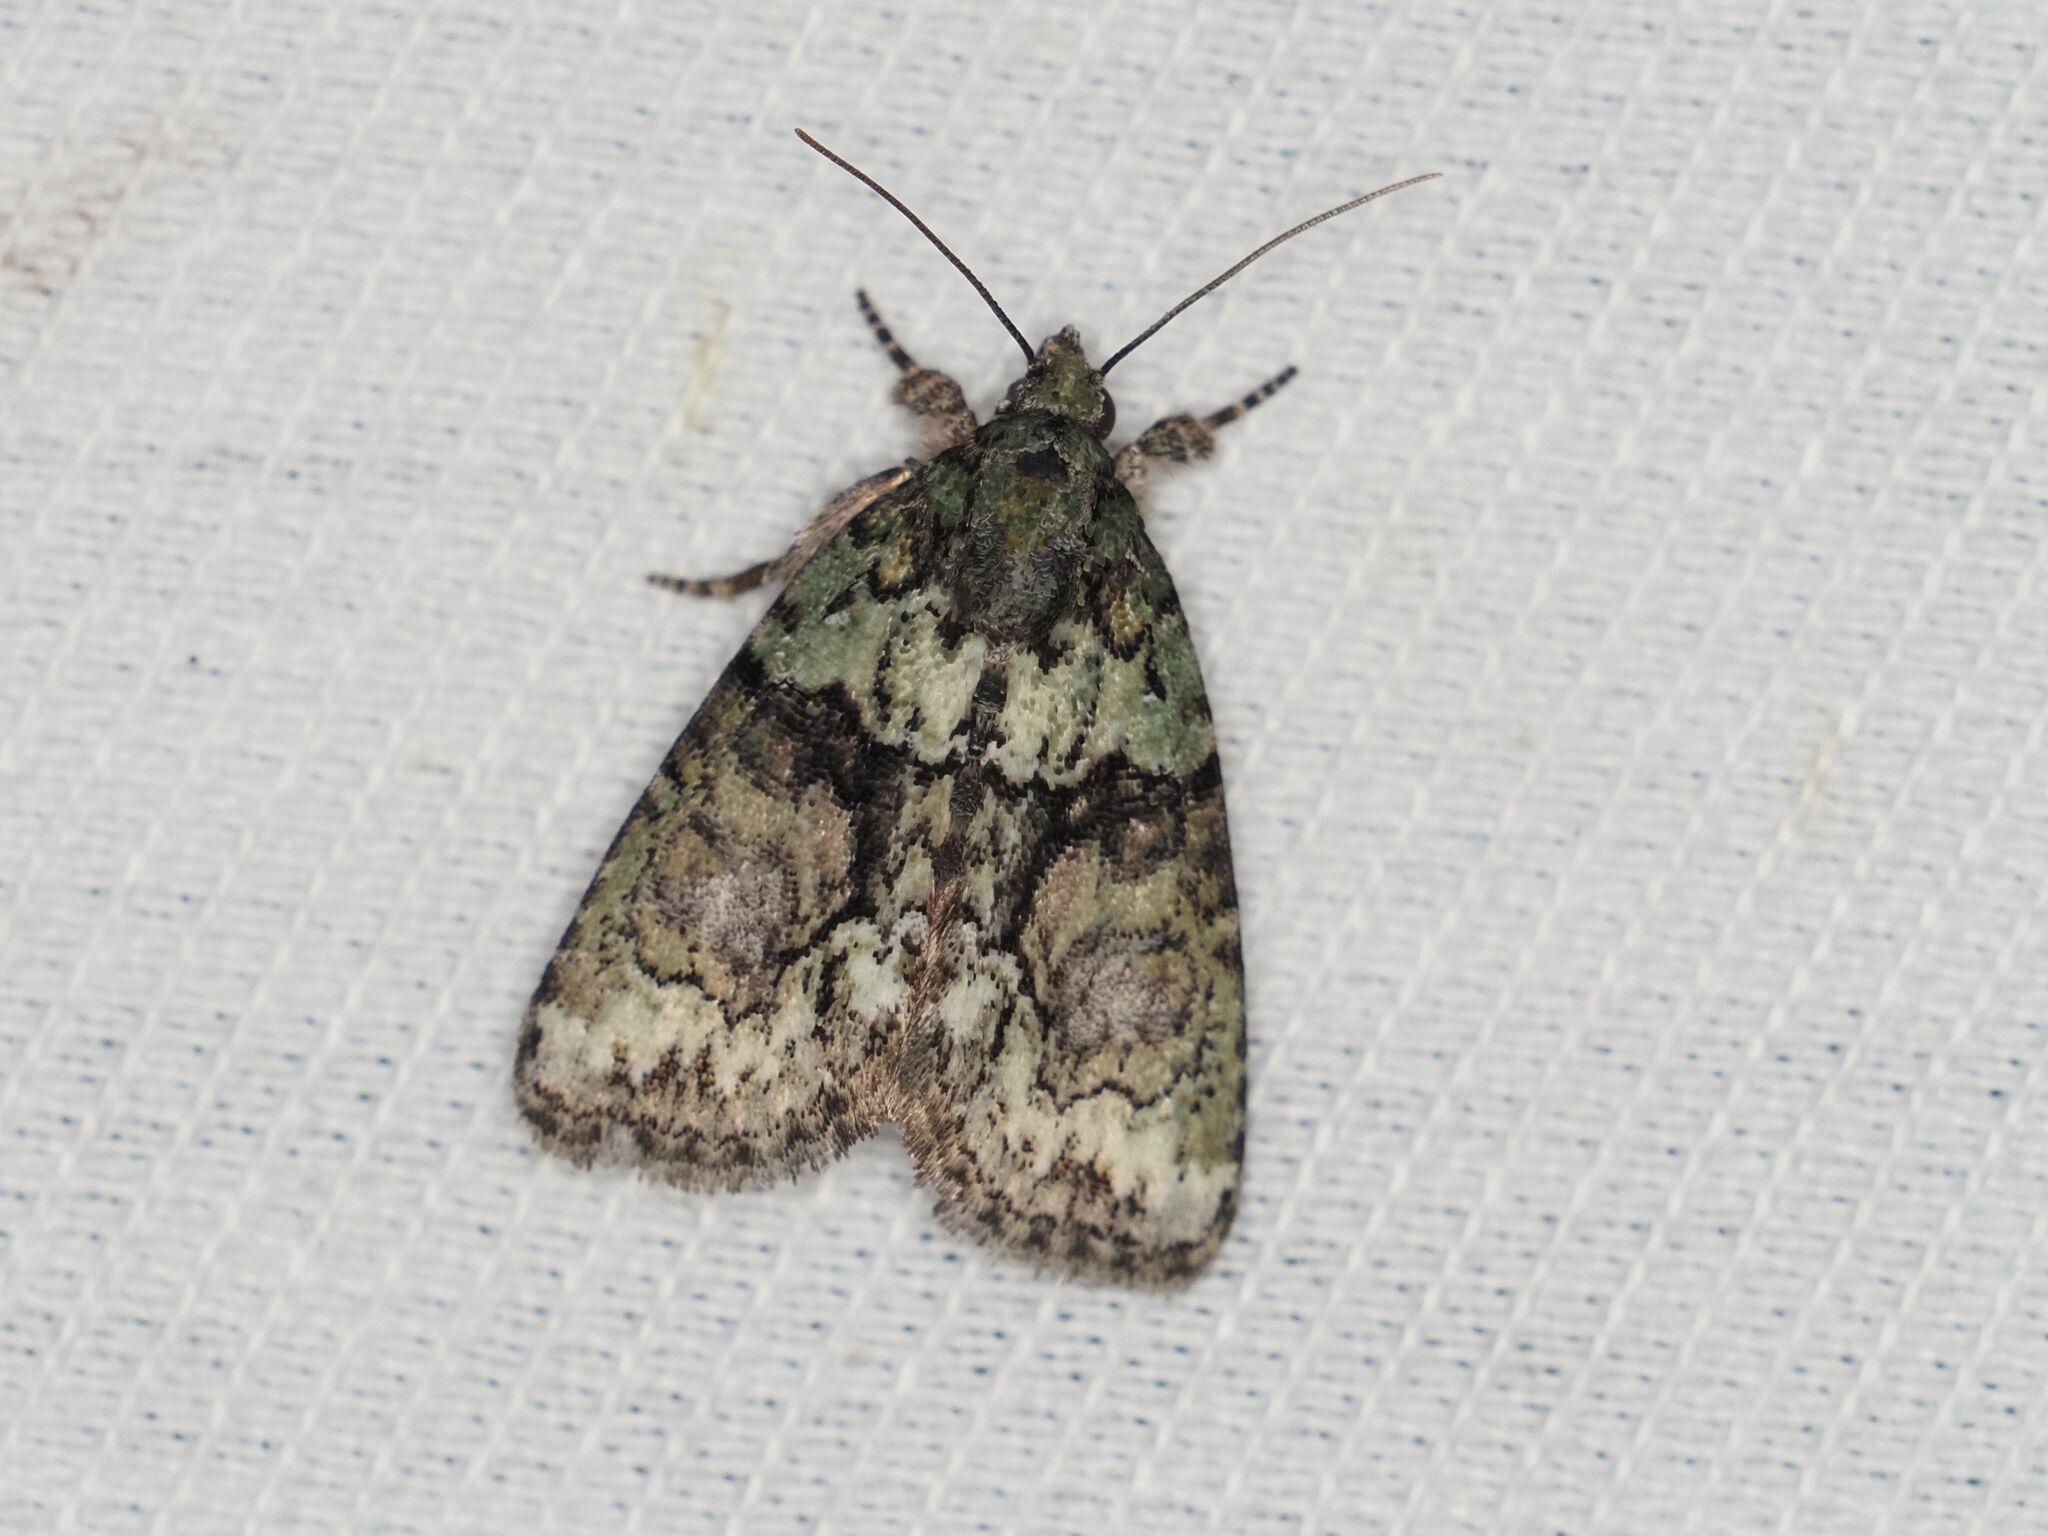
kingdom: Animalia
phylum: Arthropoda
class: Insecta
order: Lepidoptera
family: Noctuidae
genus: Cryphia
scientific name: Cryphia algae
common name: Tree-lichen beauty
